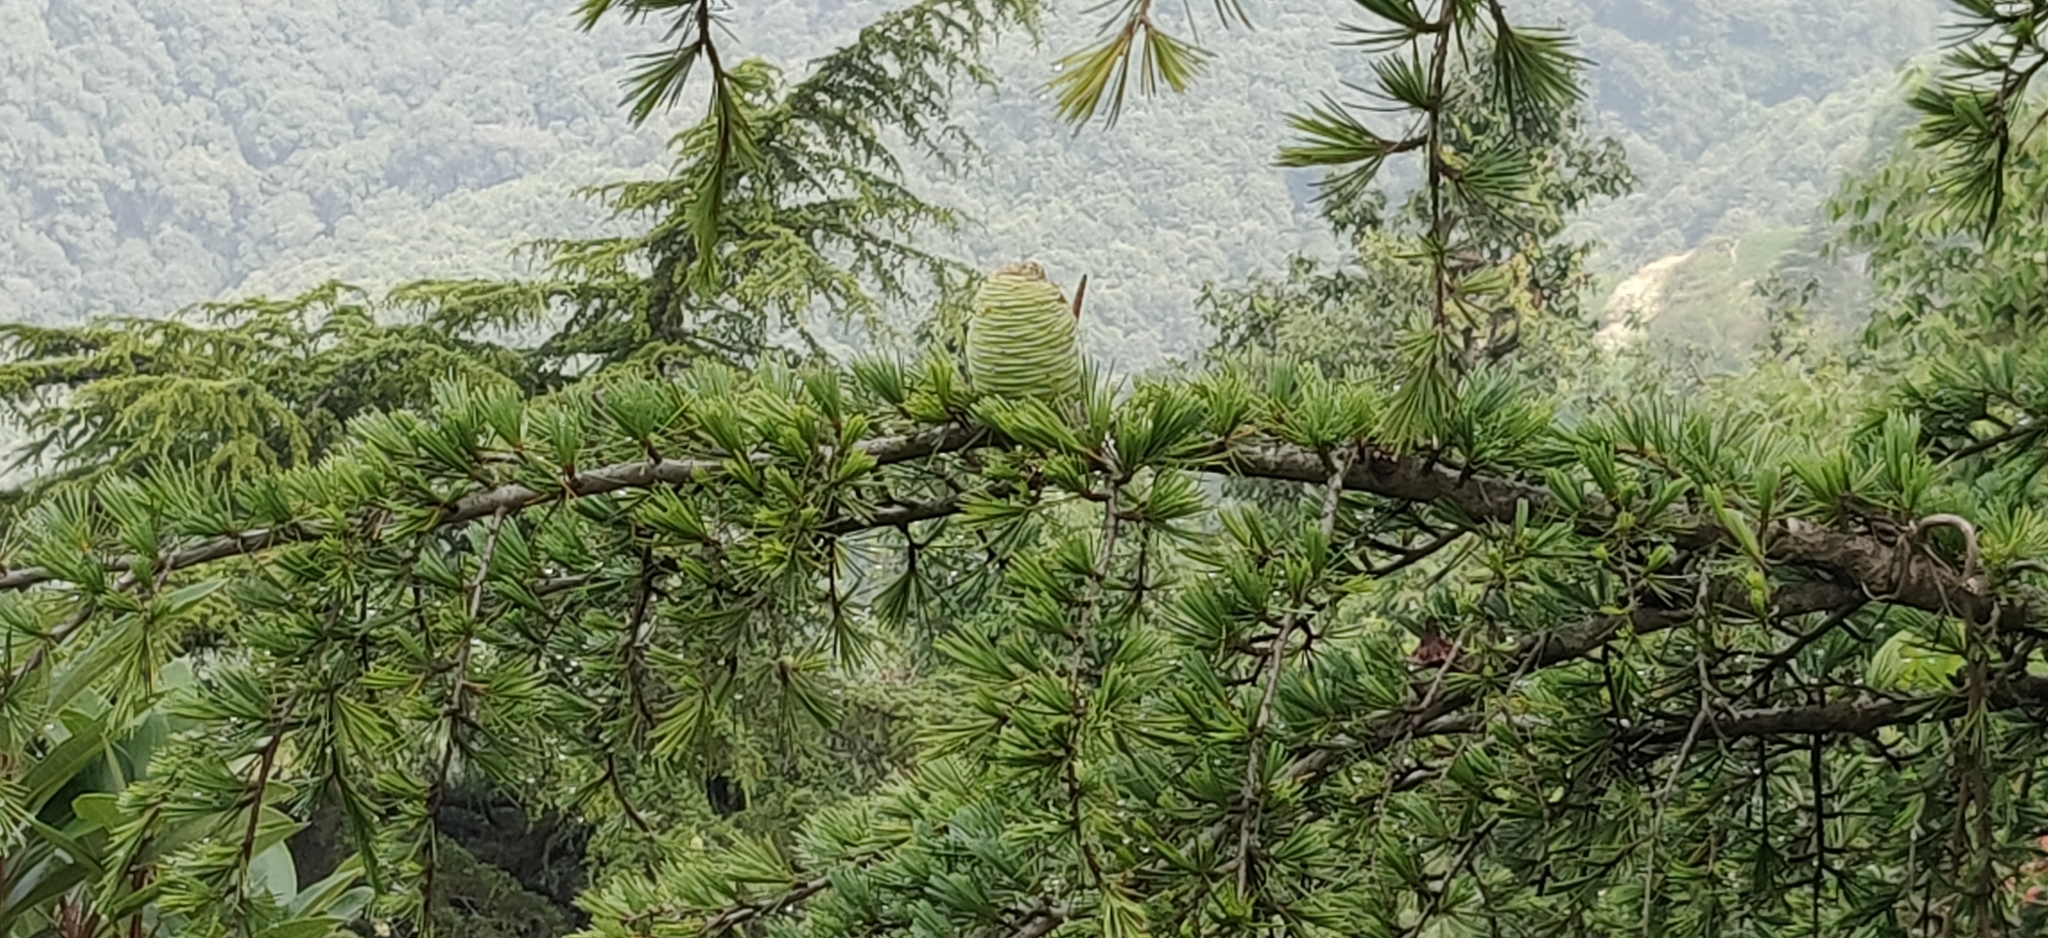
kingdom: Plantae
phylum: Tracheophyta
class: Pinopsida
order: Pinales
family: Pinaceae
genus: Cedrus
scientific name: Cedrus deodara
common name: Deodar
